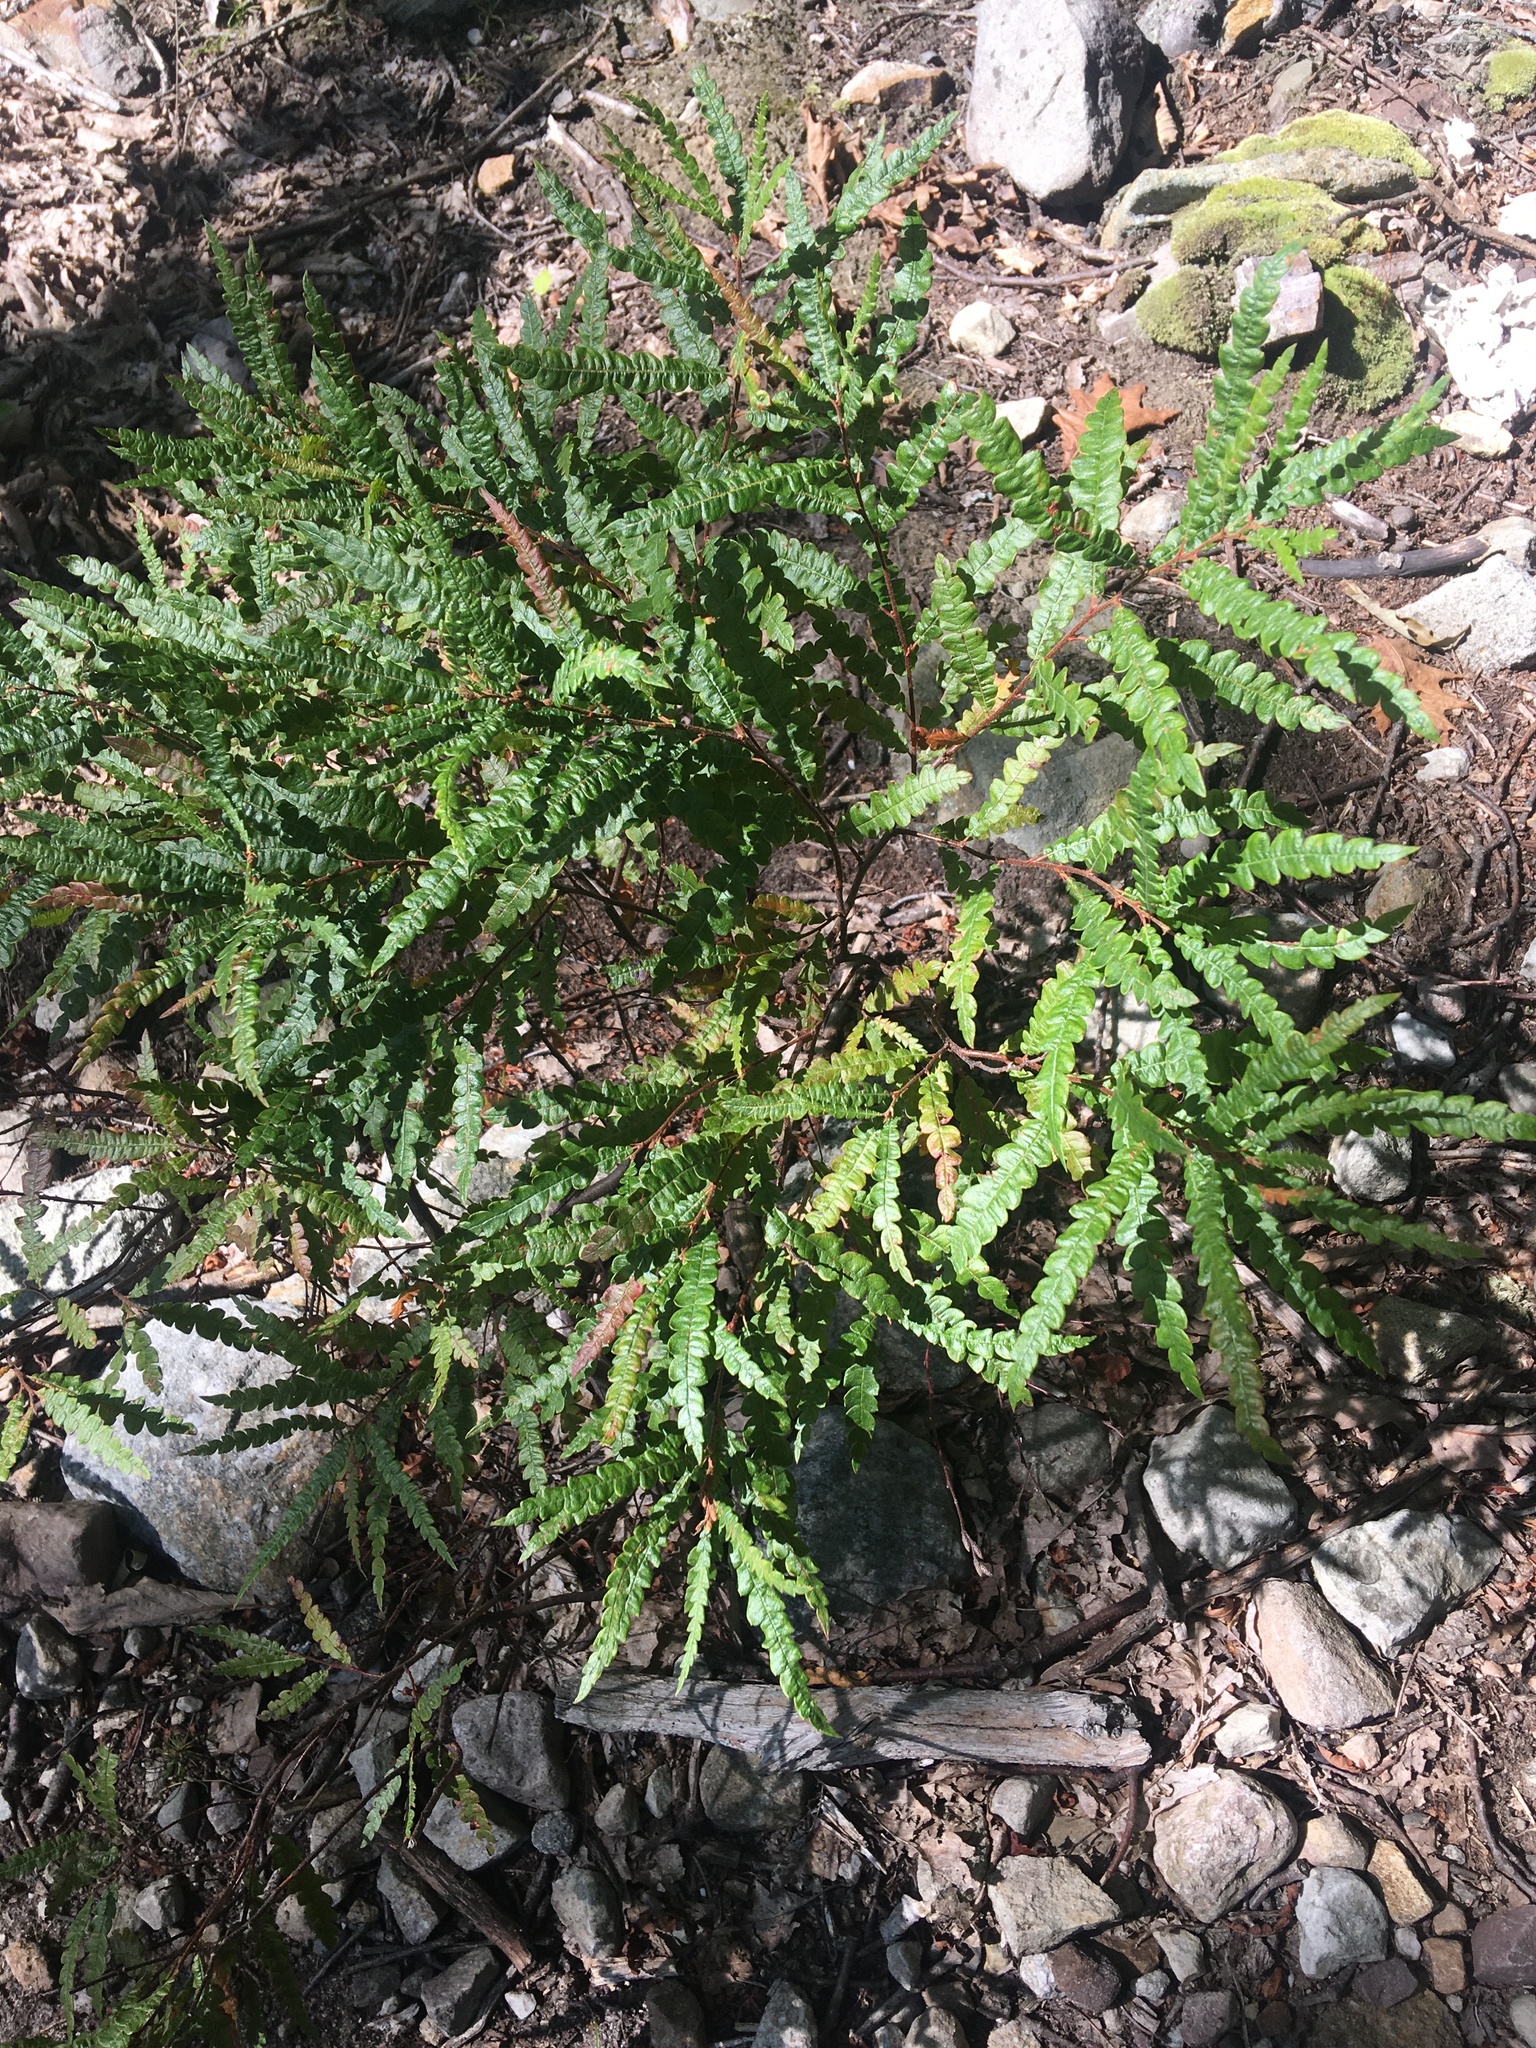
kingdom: Plantae
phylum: Tracheophyta
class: Magnoliopsida
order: Fagales
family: Myricaceae
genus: Comptonia
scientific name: Comptonia peregrina
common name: Sweet-fern
